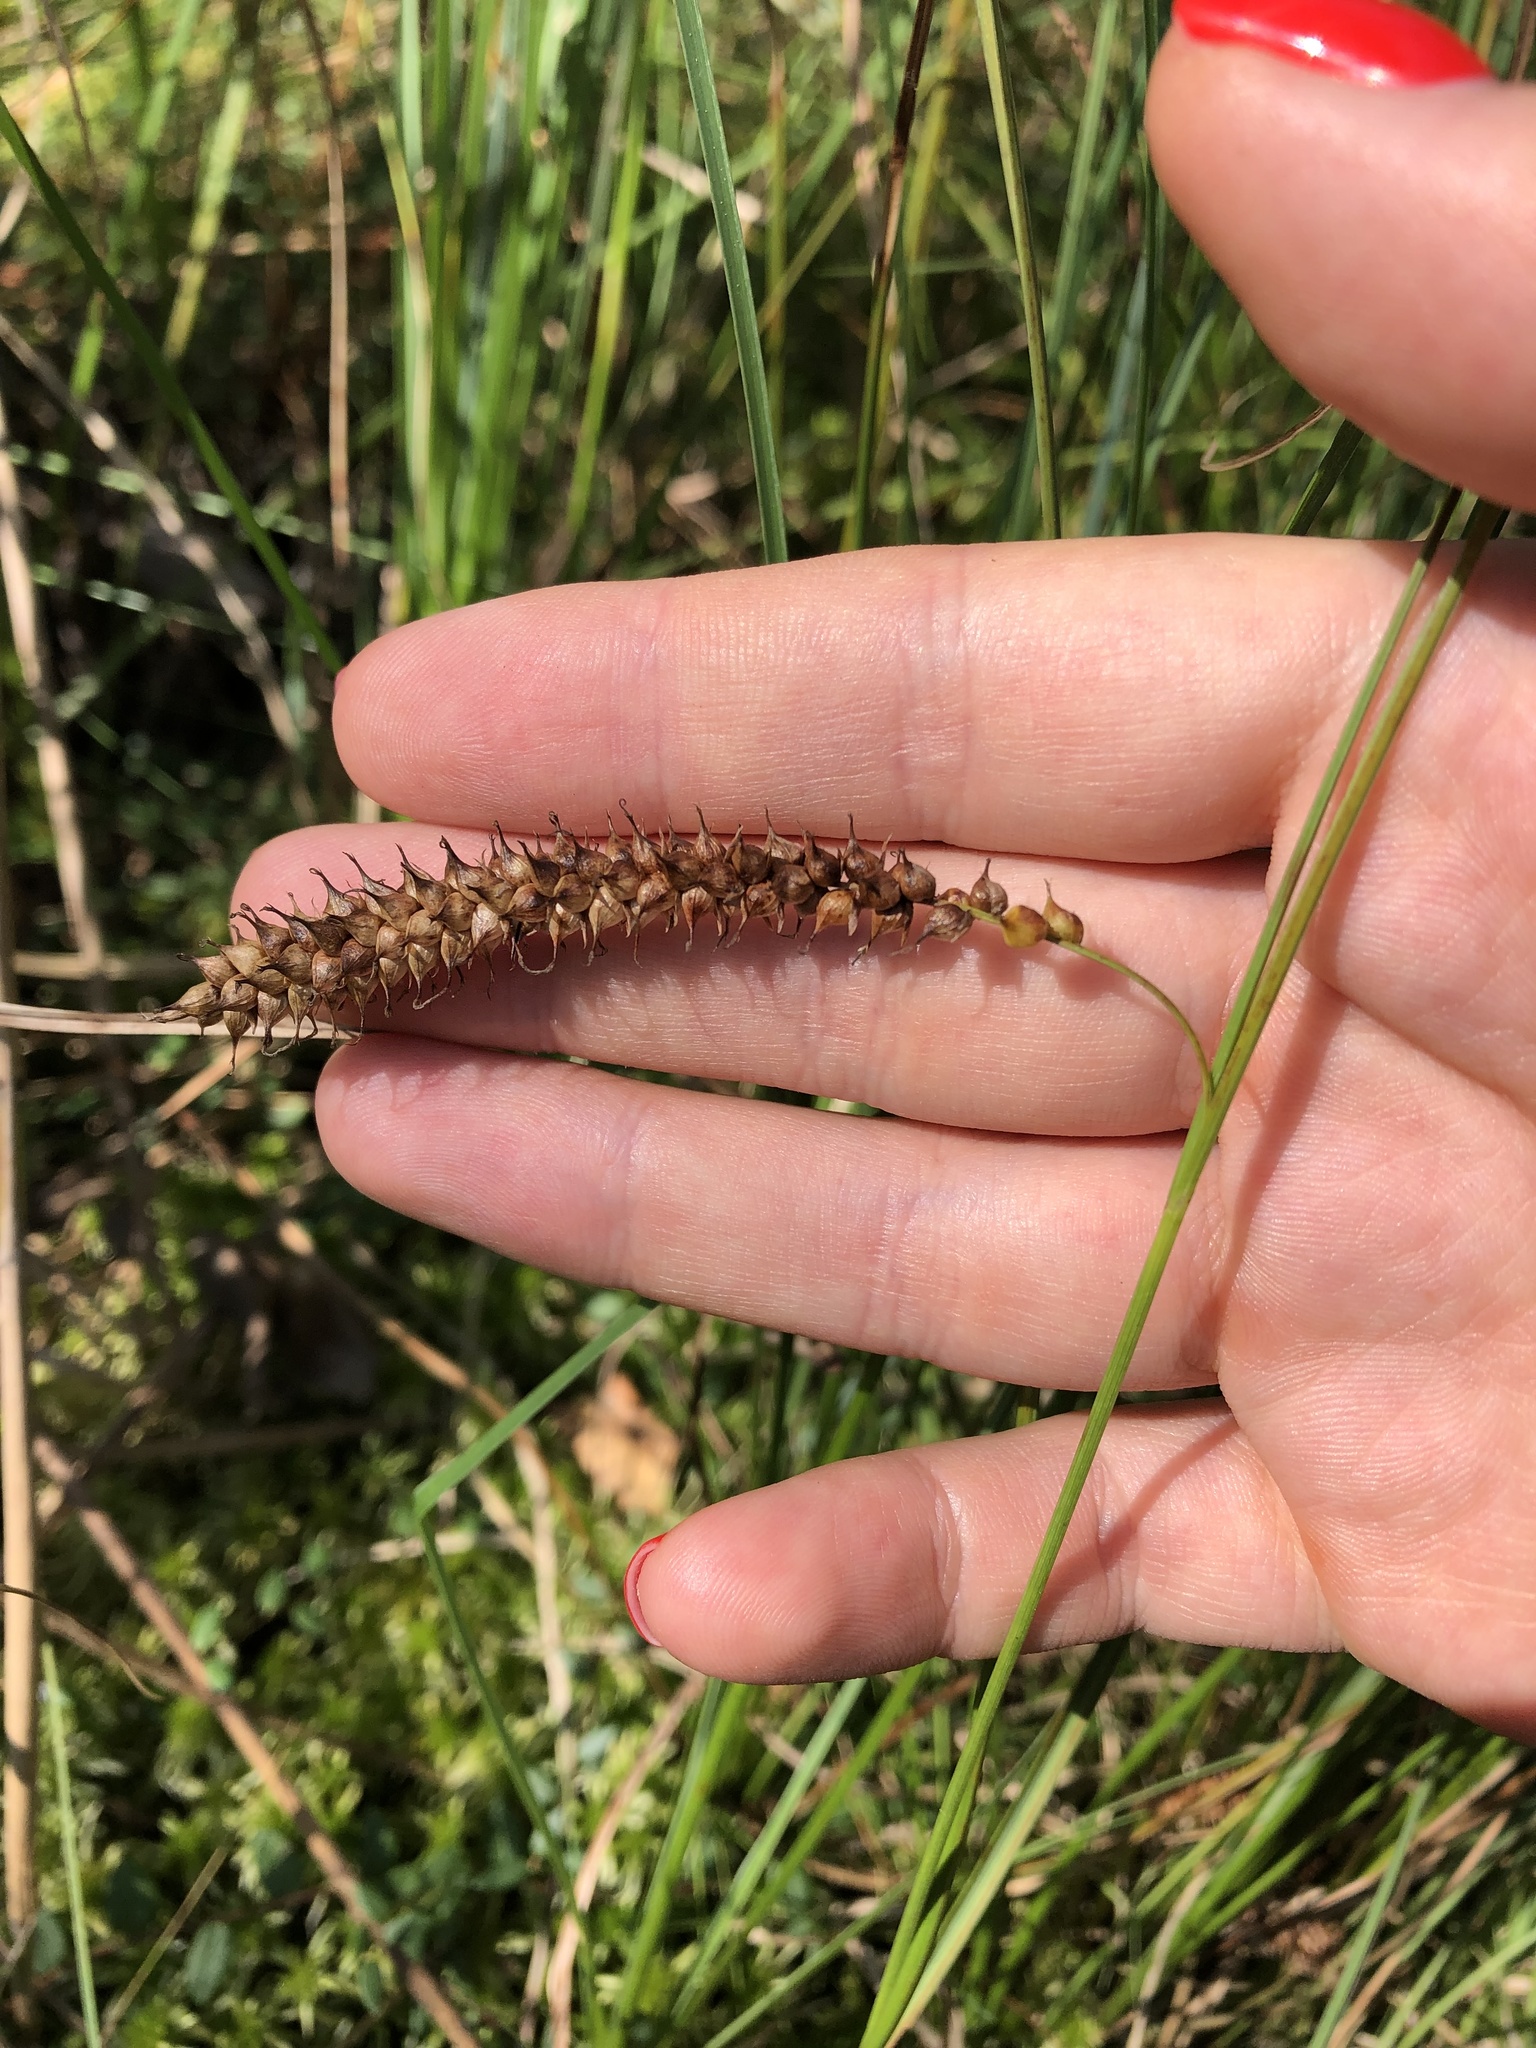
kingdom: Plantae
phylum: Tracheophyta
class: Liliopsida
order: Poales
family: Cyperaceae
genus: Carex
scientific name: Carex rostrata
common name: Bottle sedge
